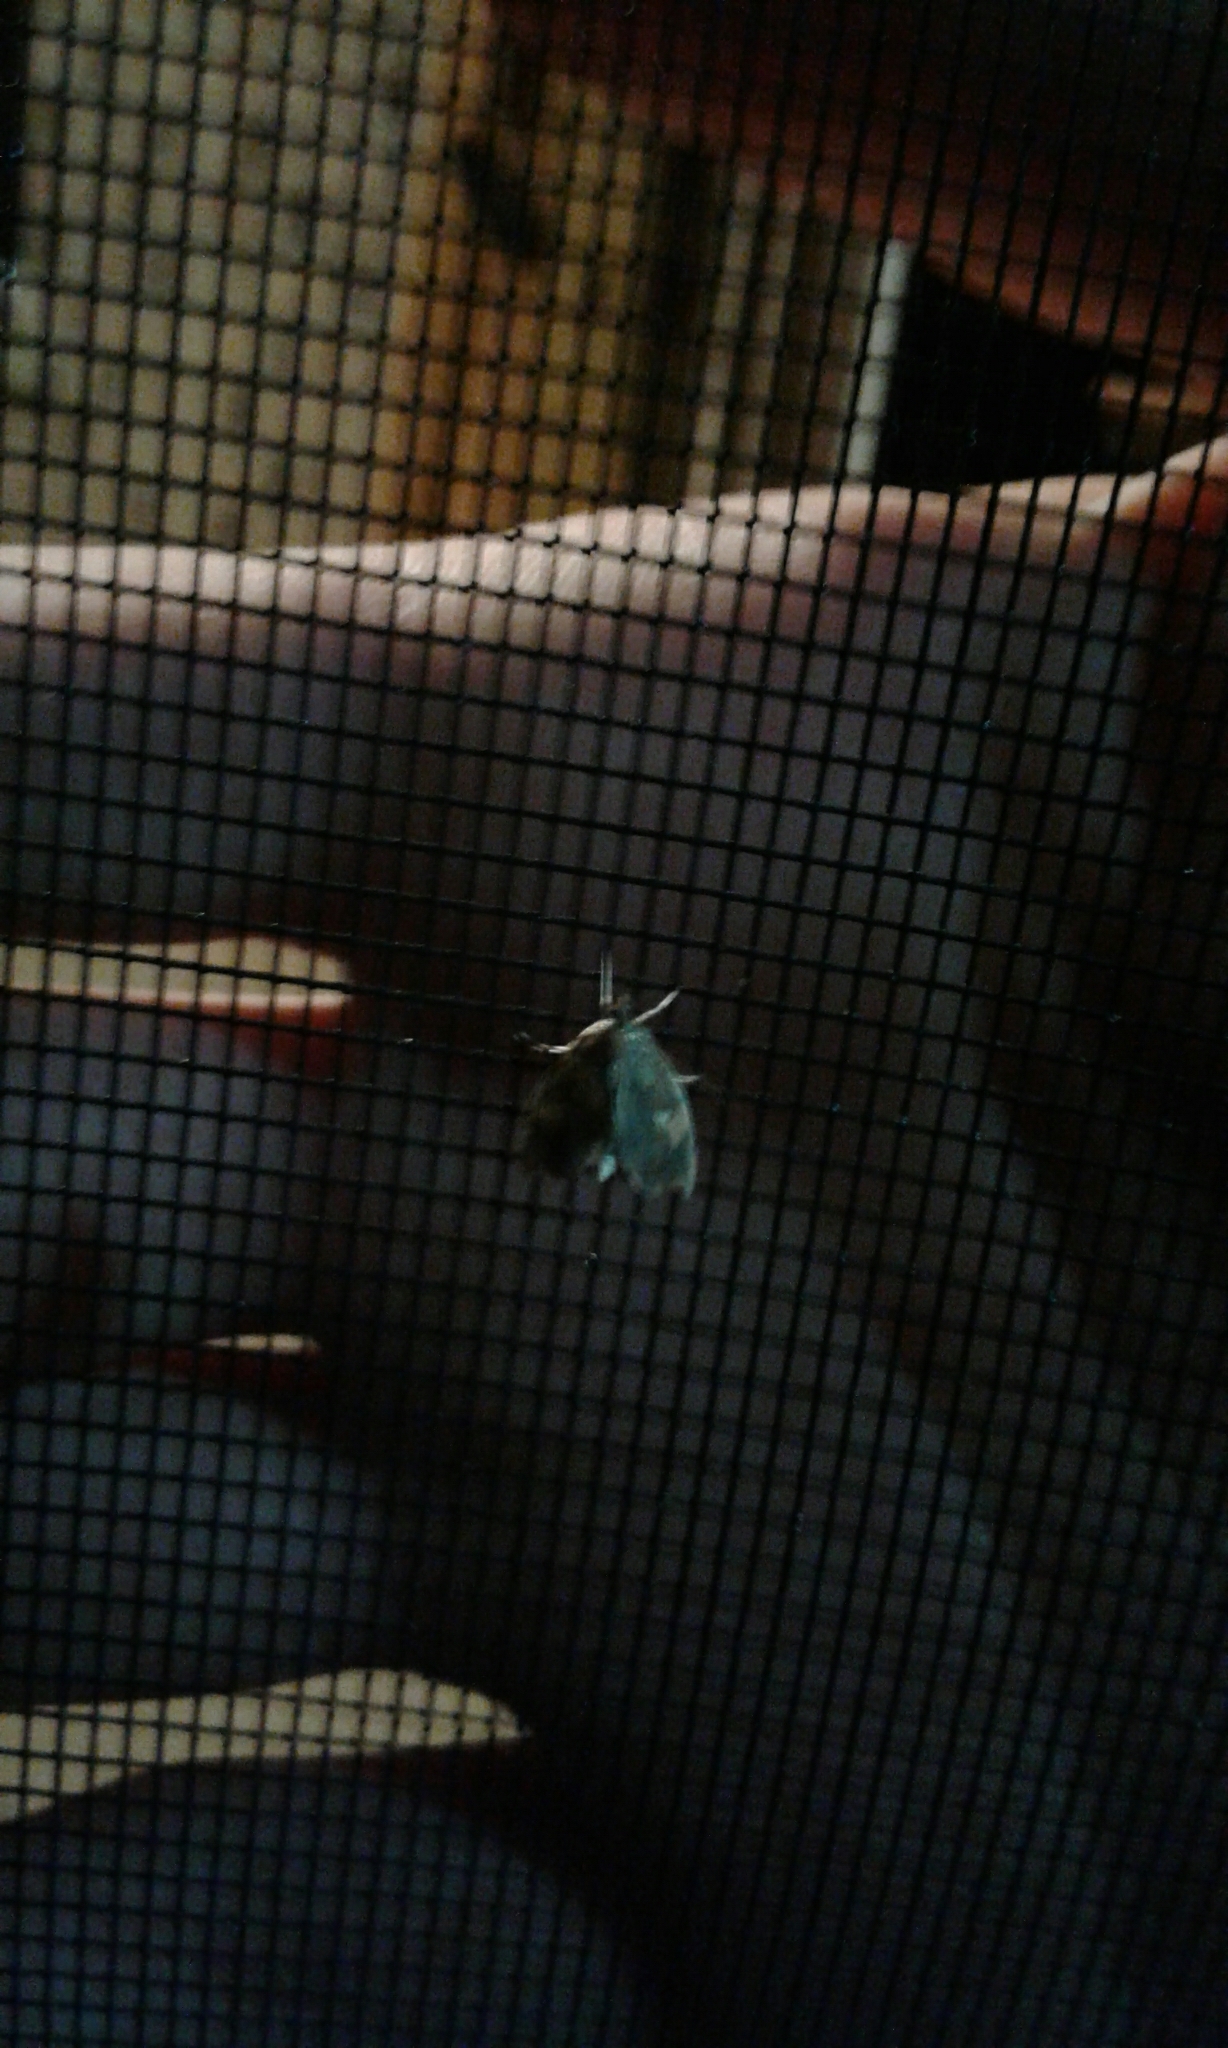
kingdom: Animalia
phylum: Arthropoda
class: Insecta
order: Lepidoptera
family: Crambidae
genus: Perispasta
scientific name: Perispasta caeculalis
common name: Titian peale's moth
